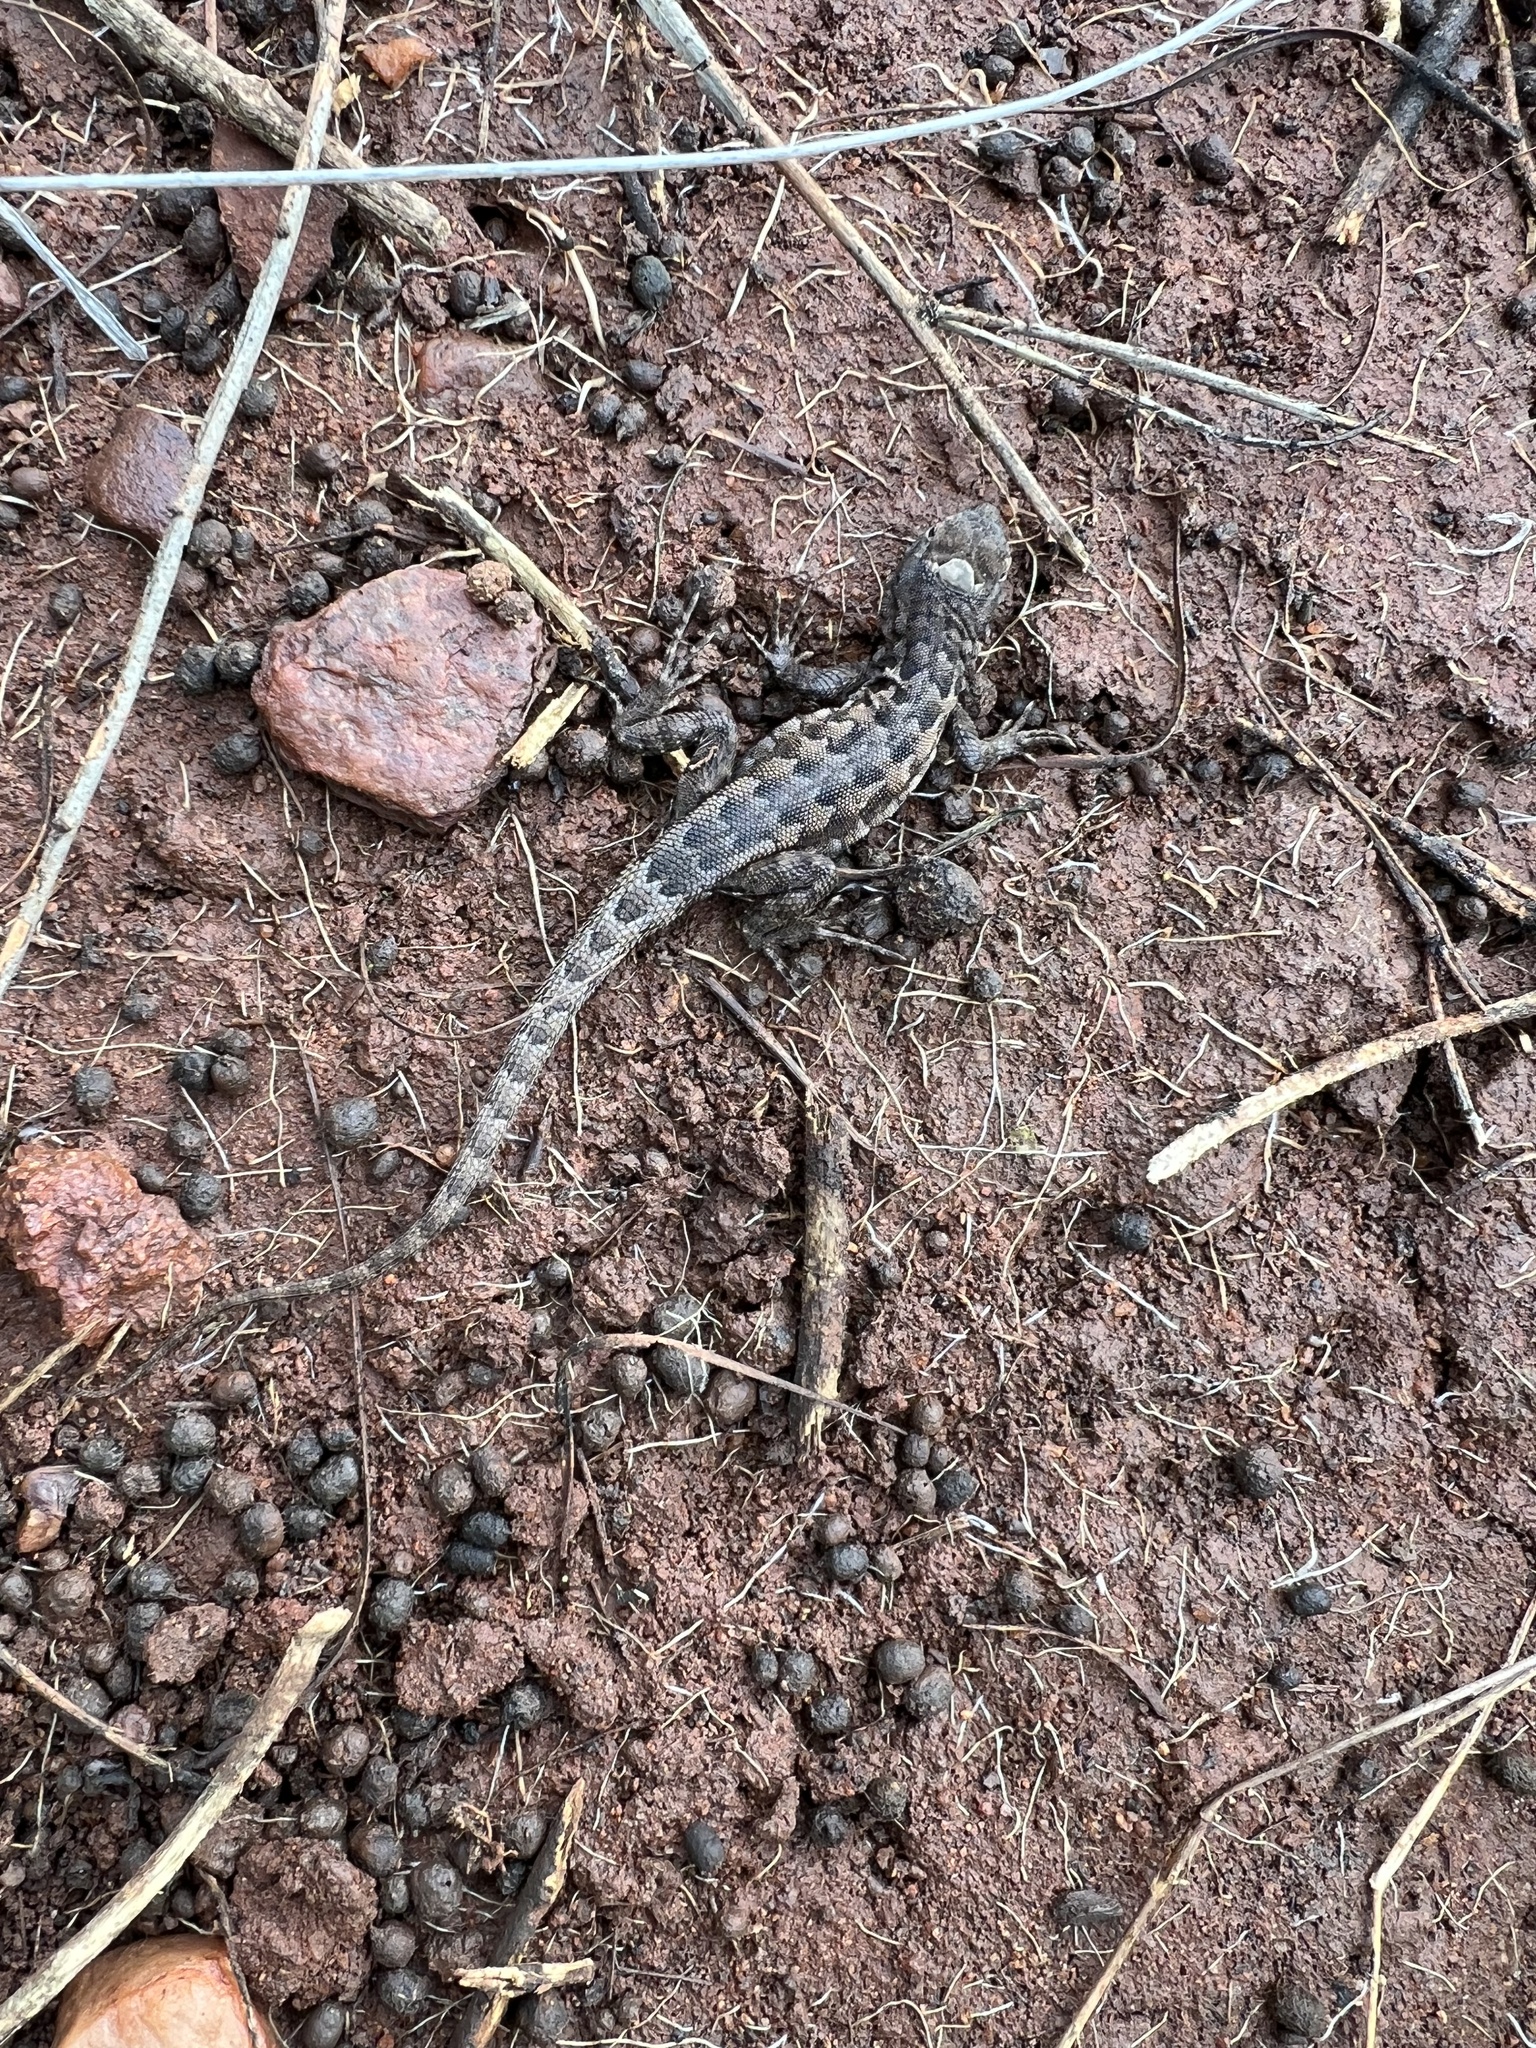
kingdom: Animalia
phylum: Chordata
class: Squamata
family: Phrynosomatidae
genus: Uta
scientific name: Uta stansburiana
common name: Side-blotched lizard
